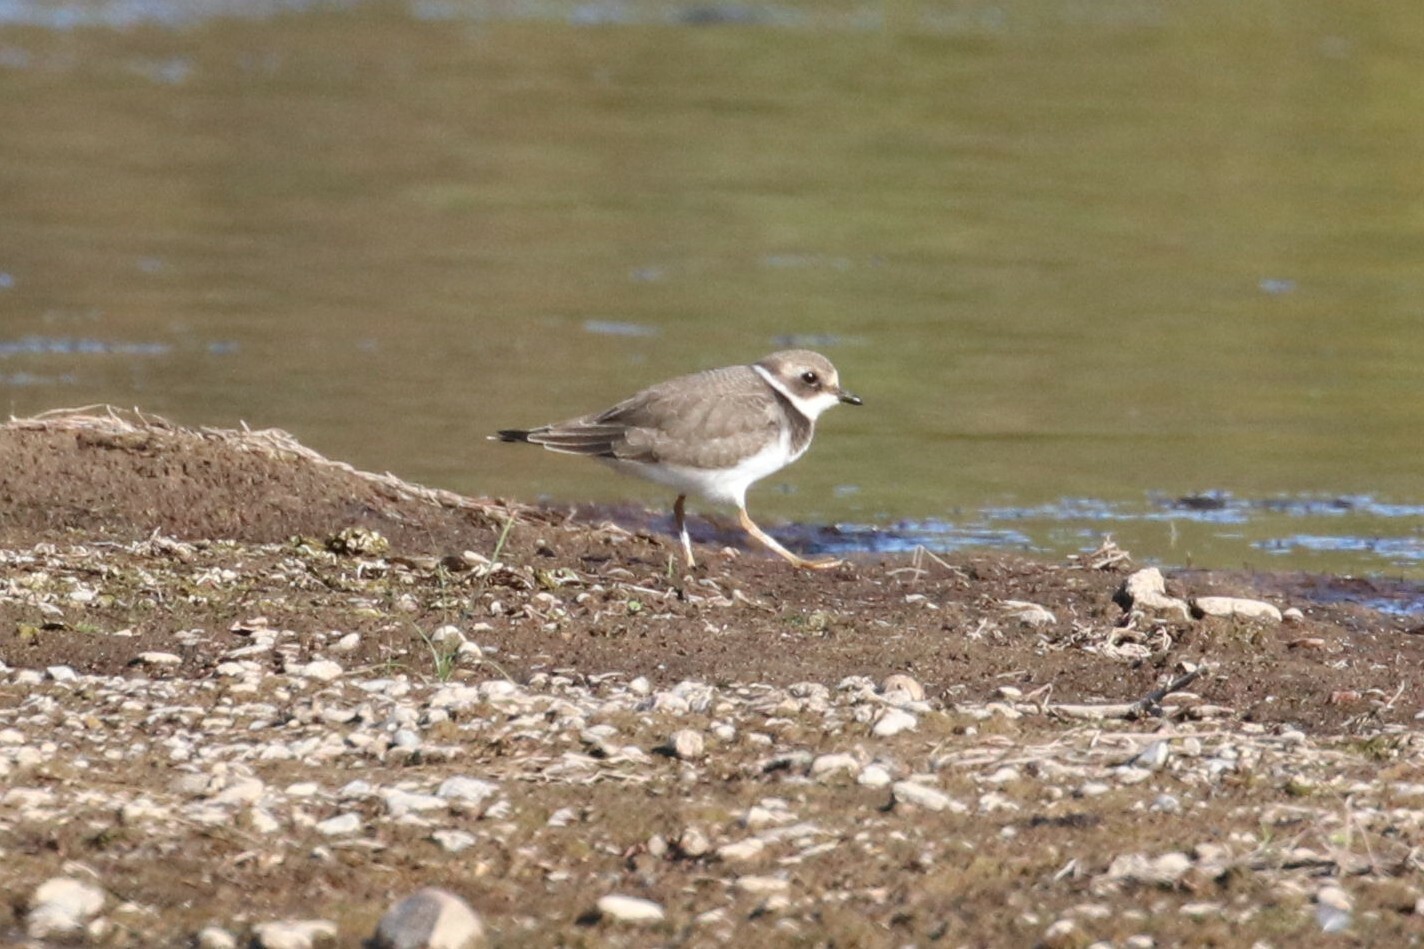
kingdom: Animalia
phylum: Chordata
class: Aves
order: Charadriiformes
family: Charadriidae
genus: Charadrius
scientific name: Charadrius hiaticula
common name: Common ringed plover
